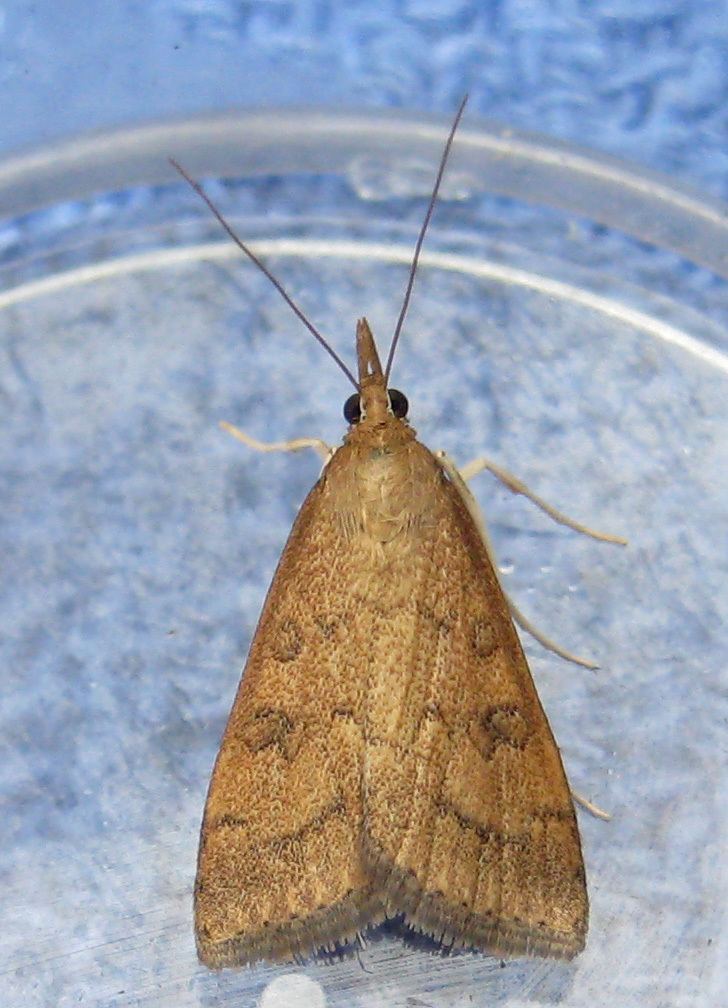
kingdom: Animalia
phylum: Arthropoda
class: Insecta
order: Lepidoptera
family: Crambidae
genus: Udea
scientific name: Udea rubigalis
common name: Celery leaftier moth
